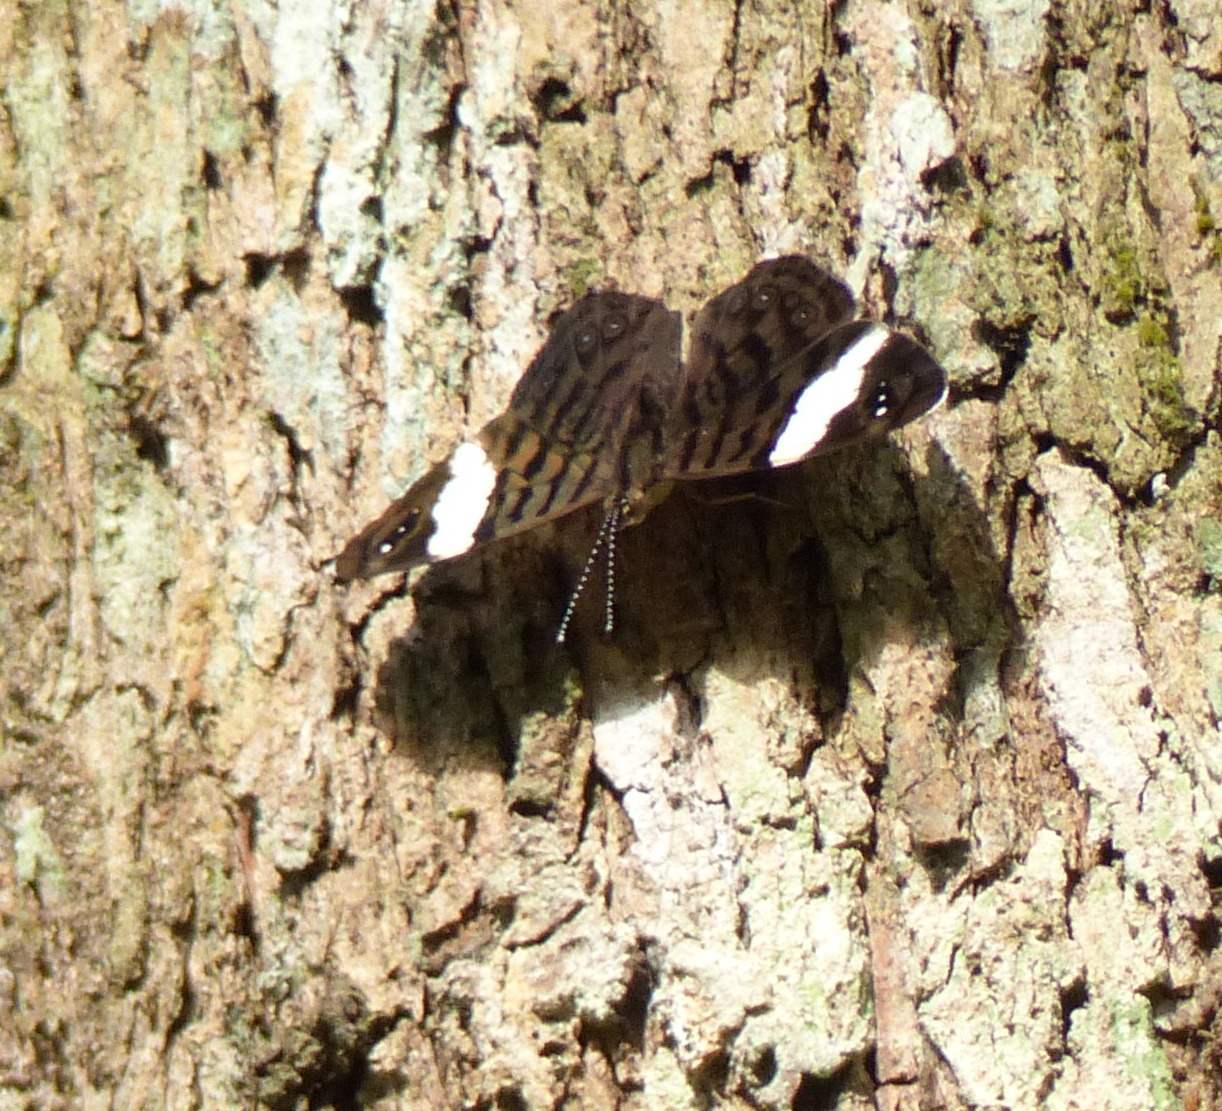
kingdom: Animalia
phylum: Arthropoda
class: Insecta
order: Lepidoptera
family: Nymphalidae
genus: Ectima
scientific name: Ectima thecla
